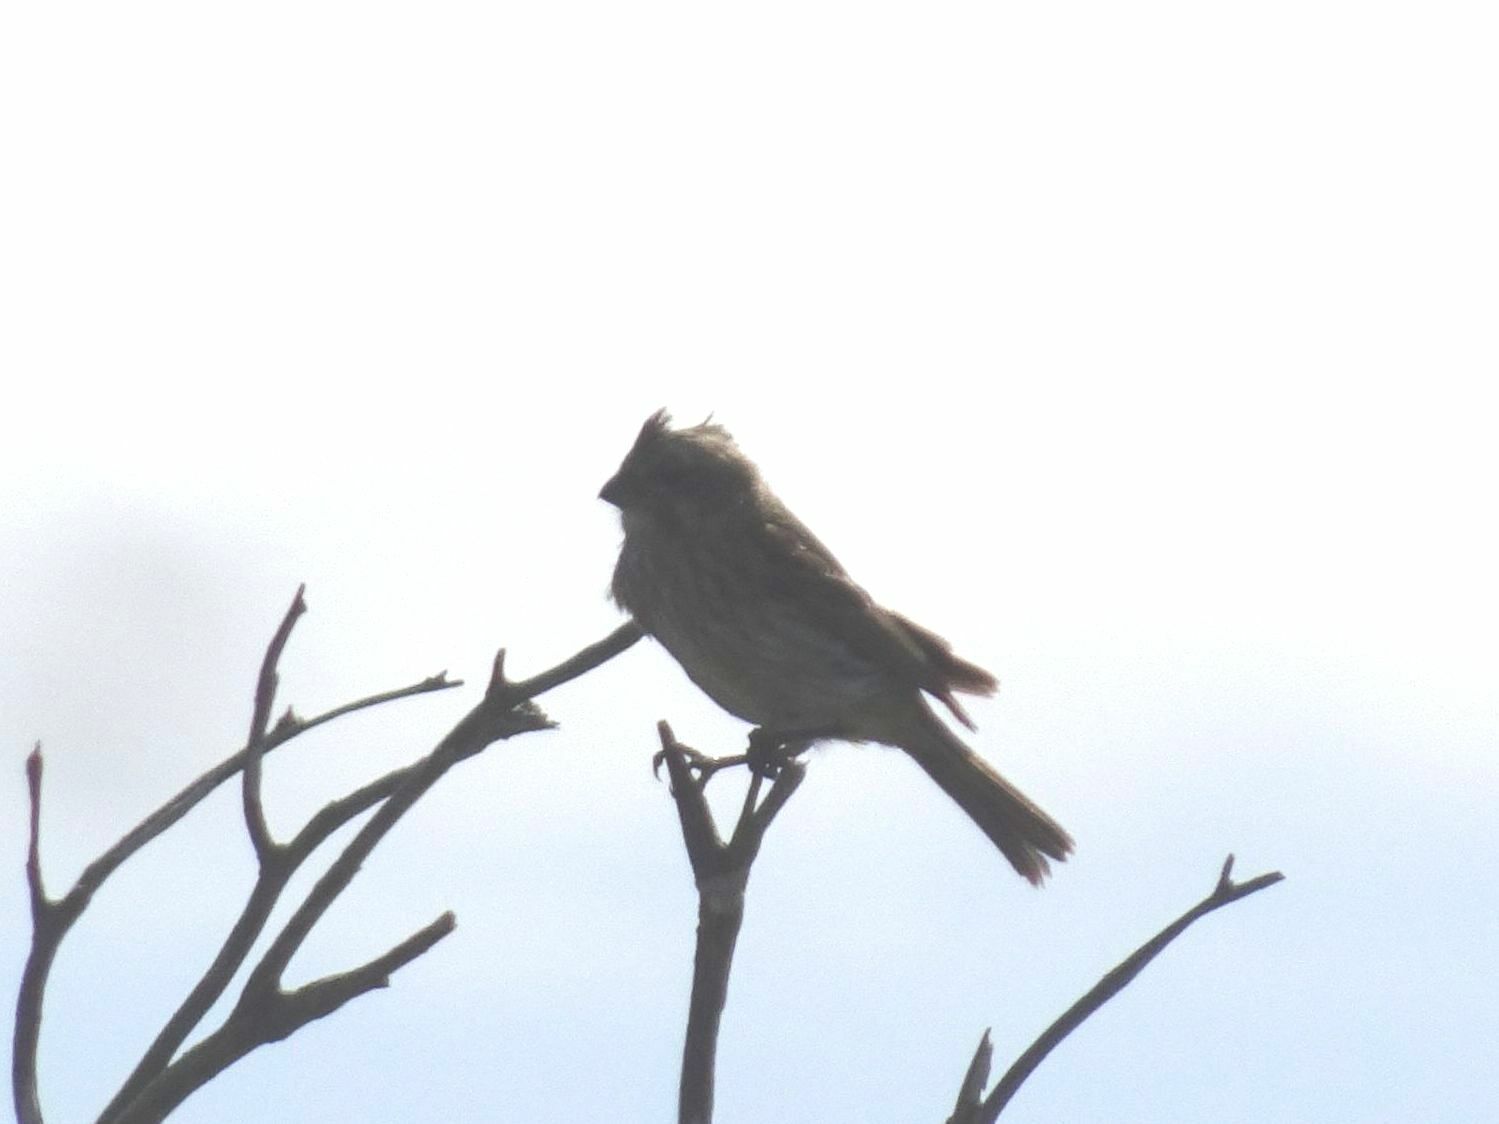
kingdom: Animalia
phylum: Chordata
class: Aves
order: Passeriformes
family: Fringillidae
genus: Crithagra
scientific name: Crithagra flaviventris
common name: Yellow canary
